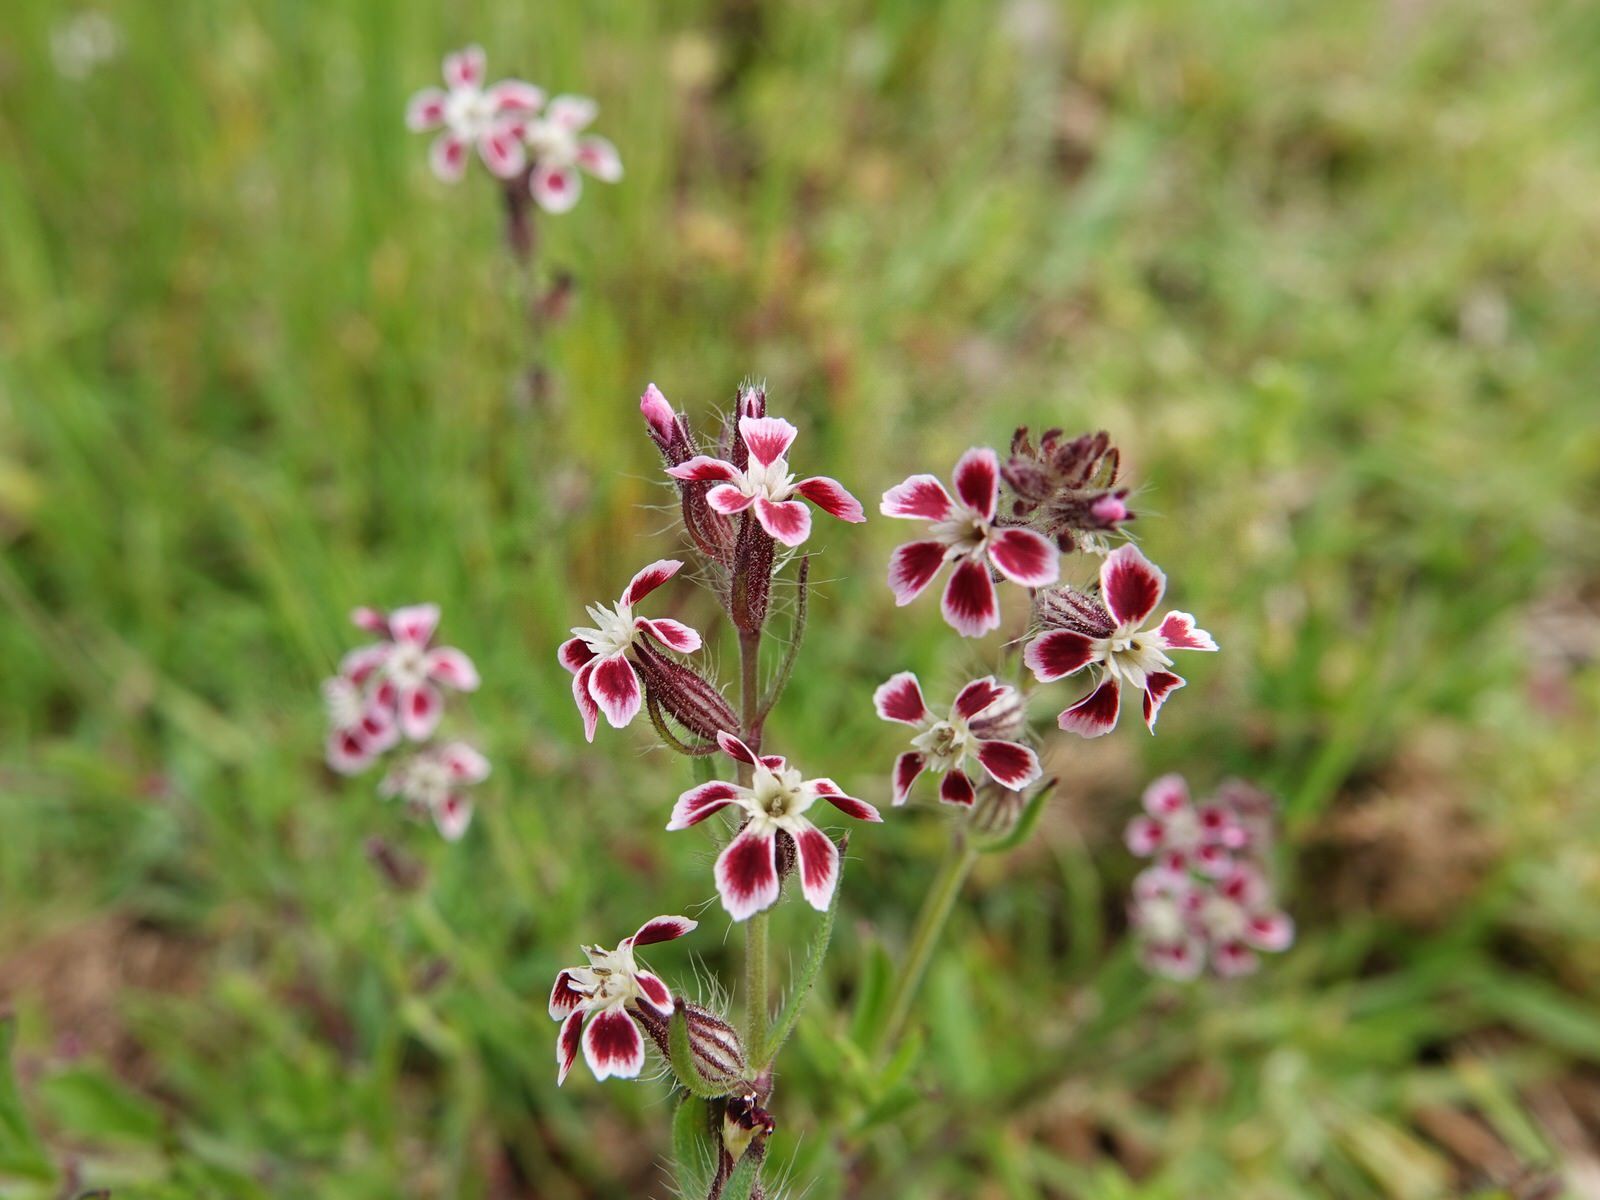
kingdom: Plantae
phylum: Tracheophyta
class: Magnoliopsida
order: Caryophyllales
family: Caryophyllaceae
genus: Silene
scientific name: Silene gallica
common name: Small-flowered catchfly
